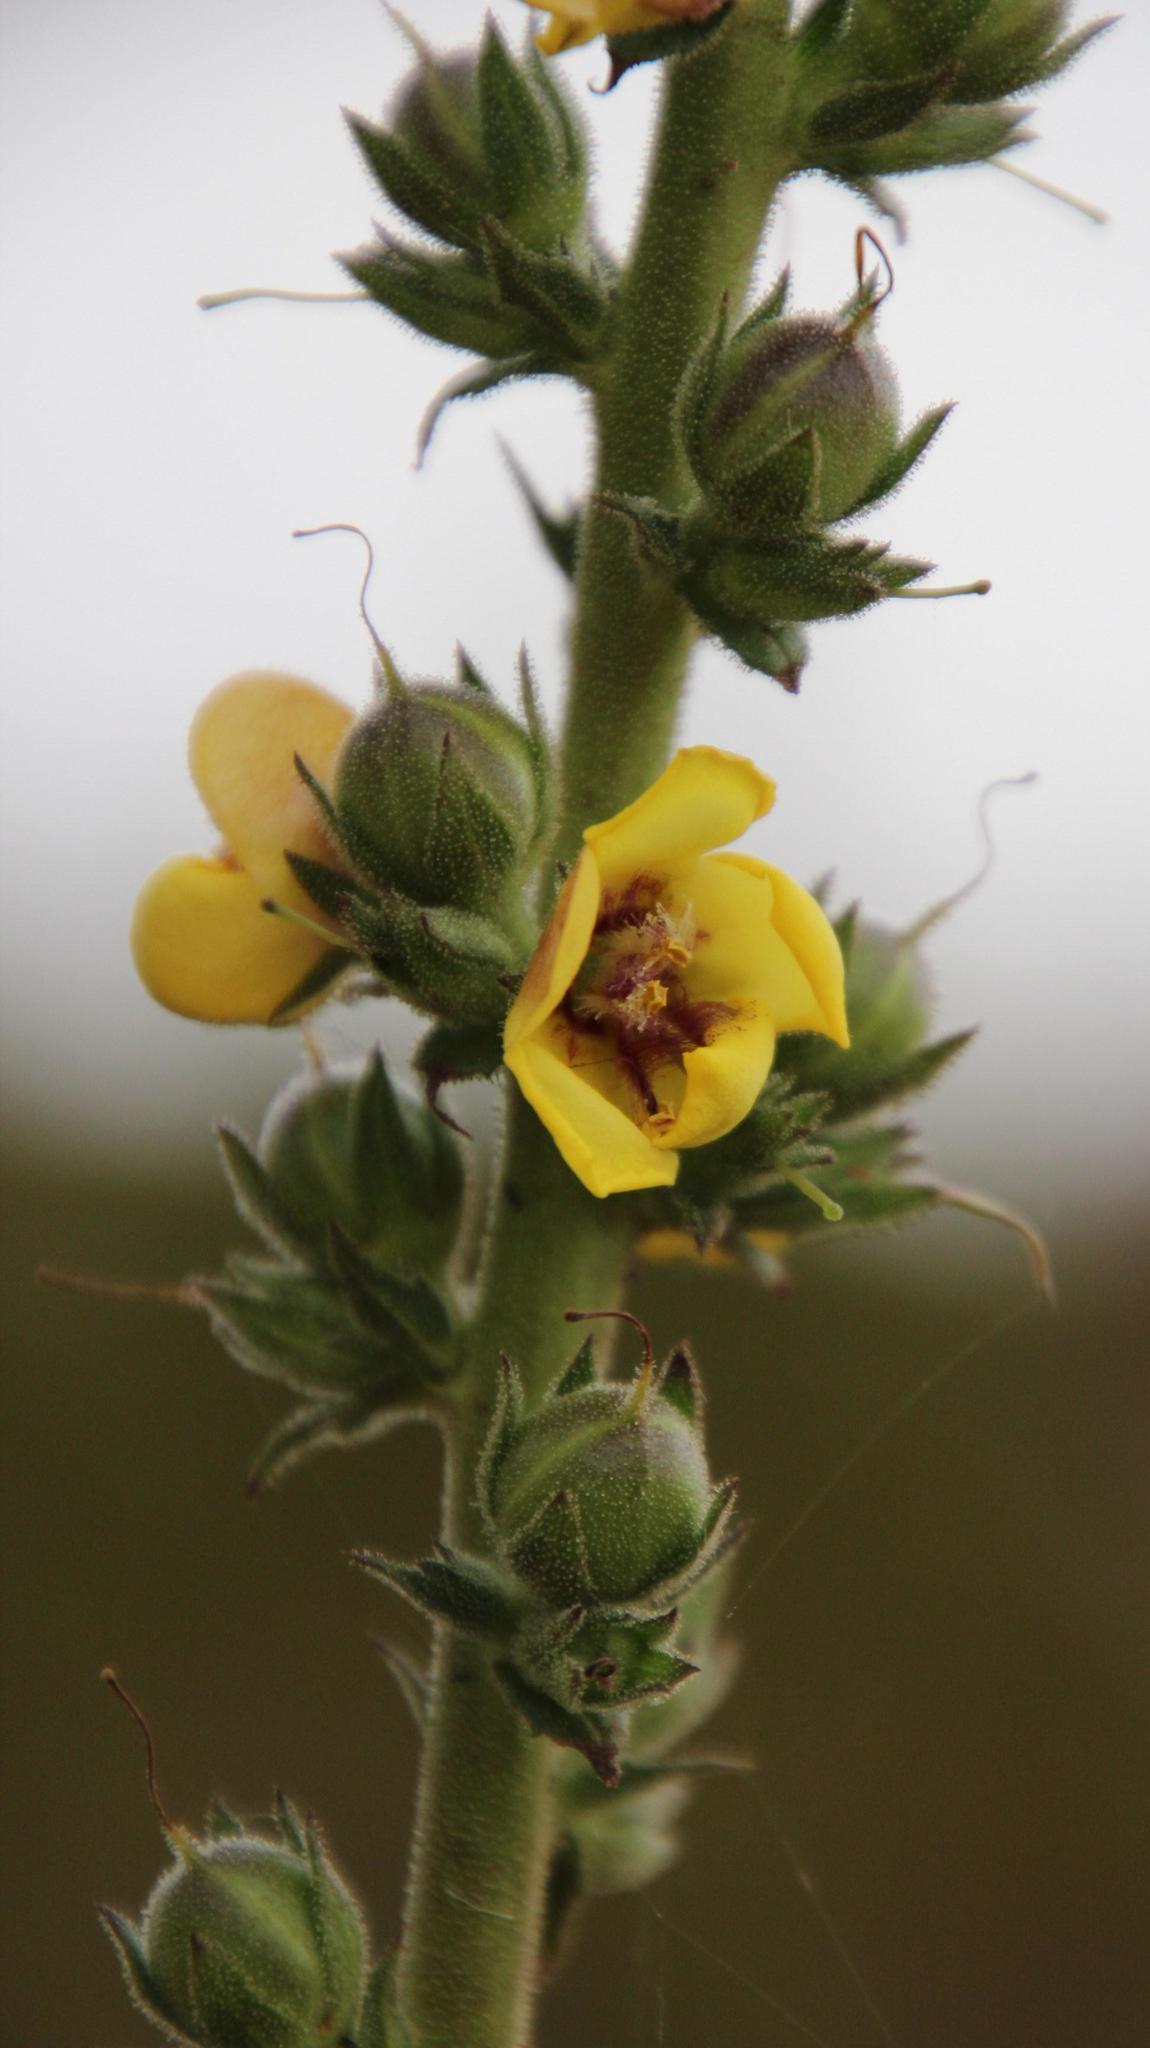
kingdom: Plantae
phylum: Tracheophyta
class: Magnoliopsida
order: Lamiales
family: Scrophulariaceae
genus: Verbascum
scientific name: Verbascum virgatum
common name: Twiggy mullein
